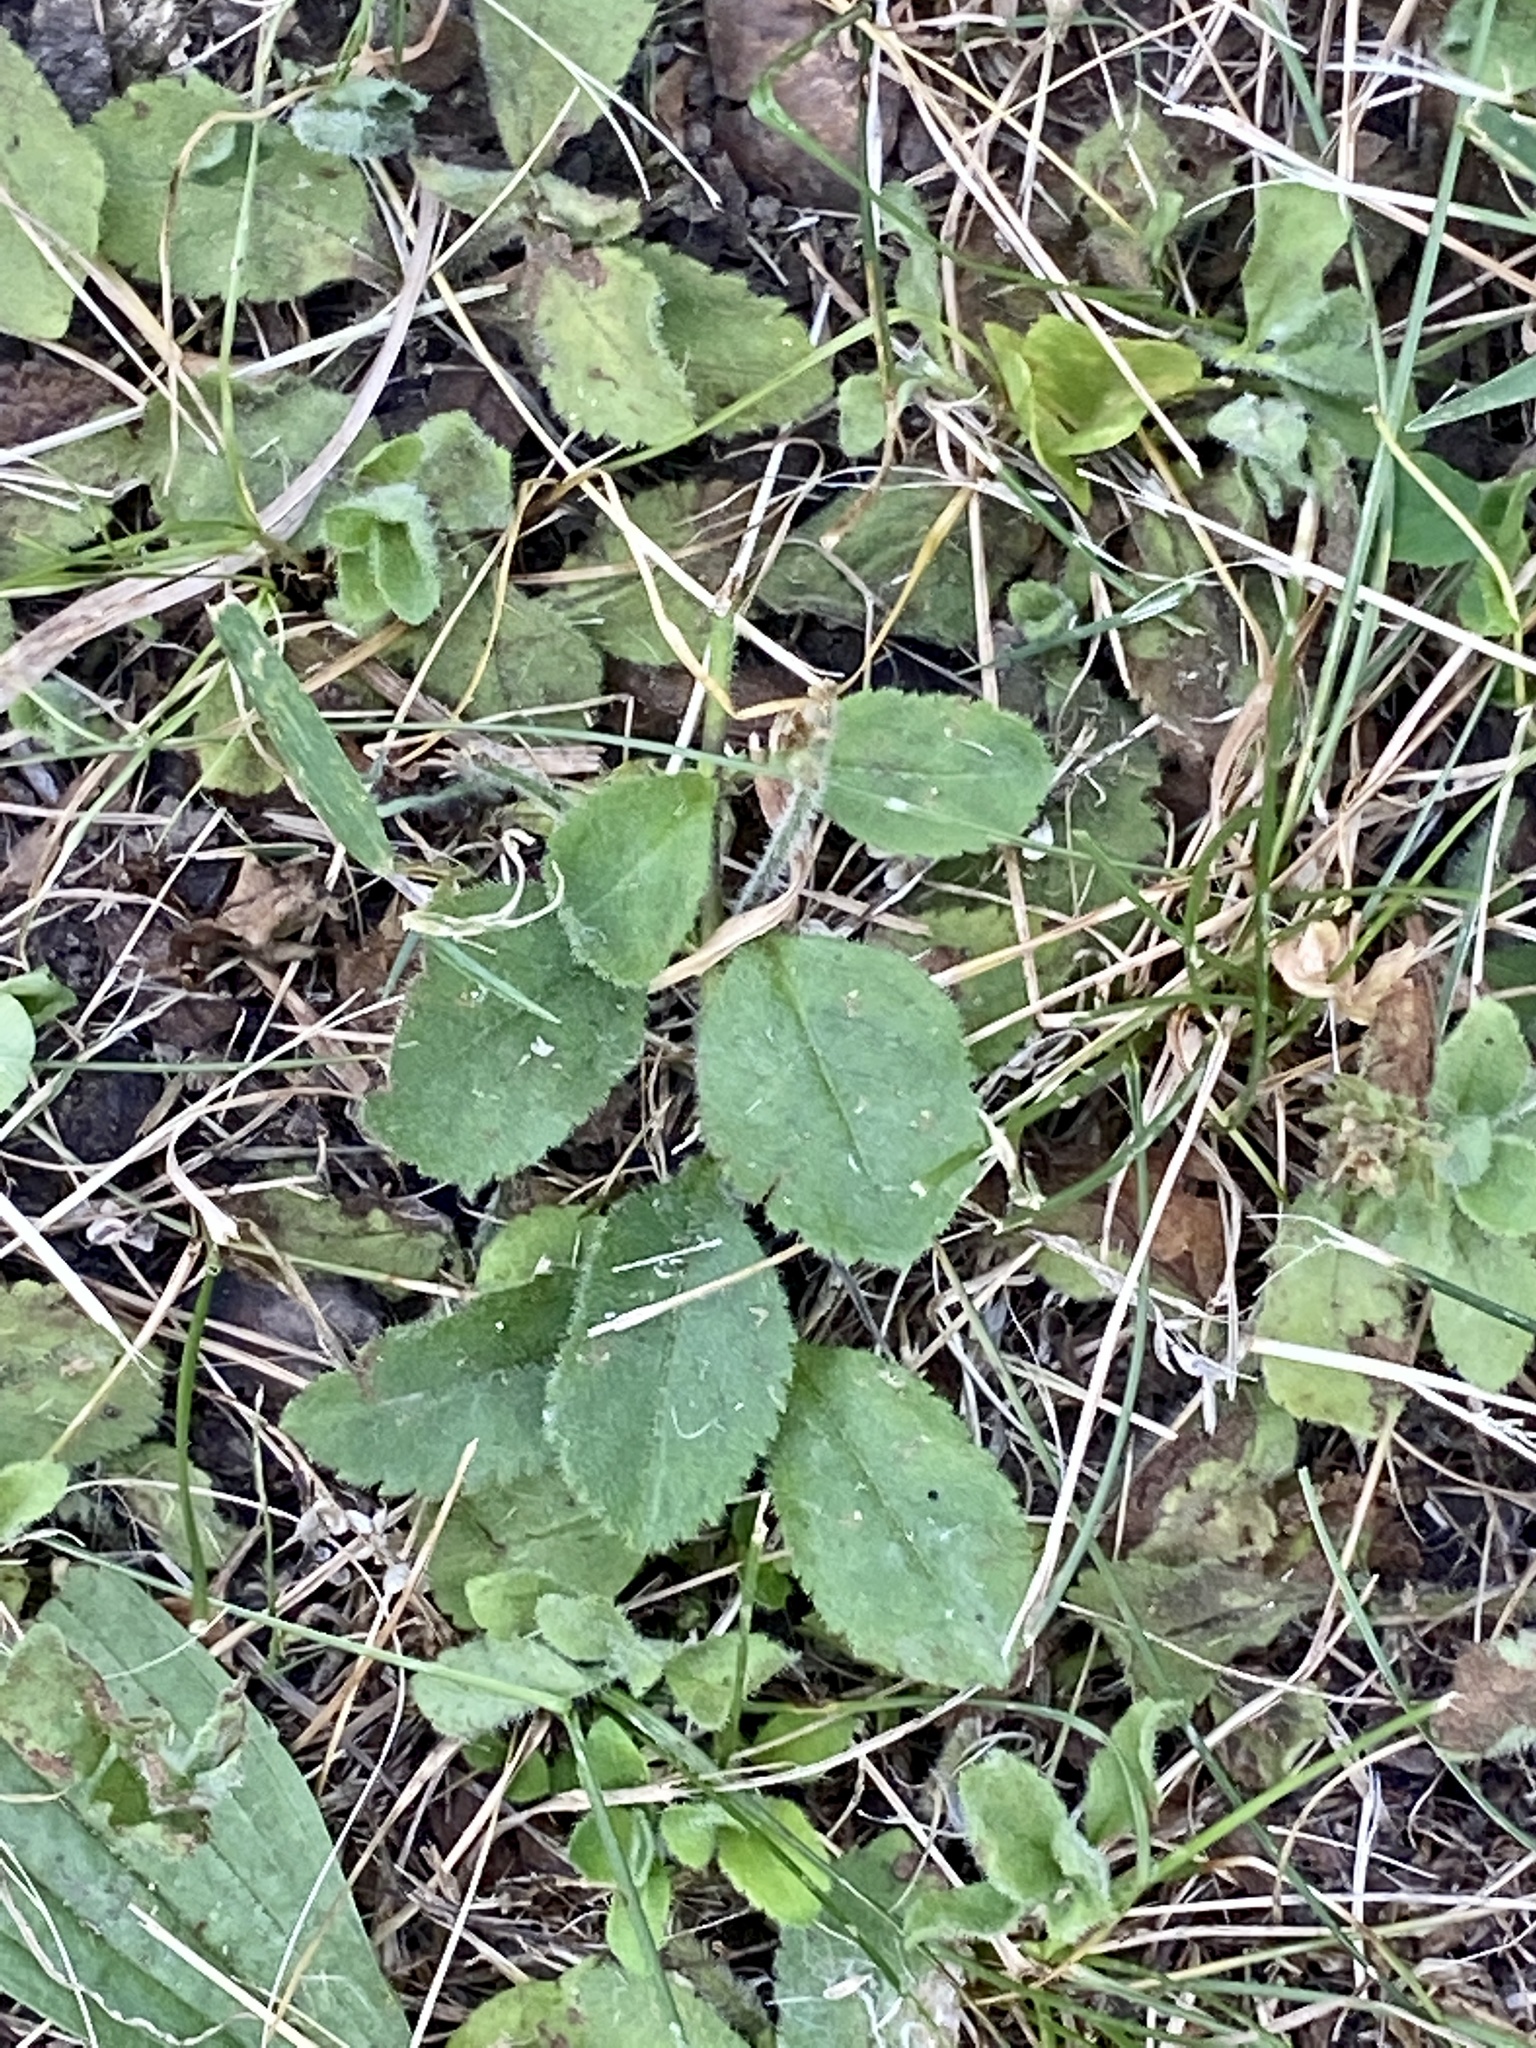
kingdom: Plantae
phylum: Tracheophyta
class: Magnoliopsida
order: Lamiales
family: Plantaginaceae
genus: Veronica
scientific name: Veronica officinalis
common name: Common speedwell
